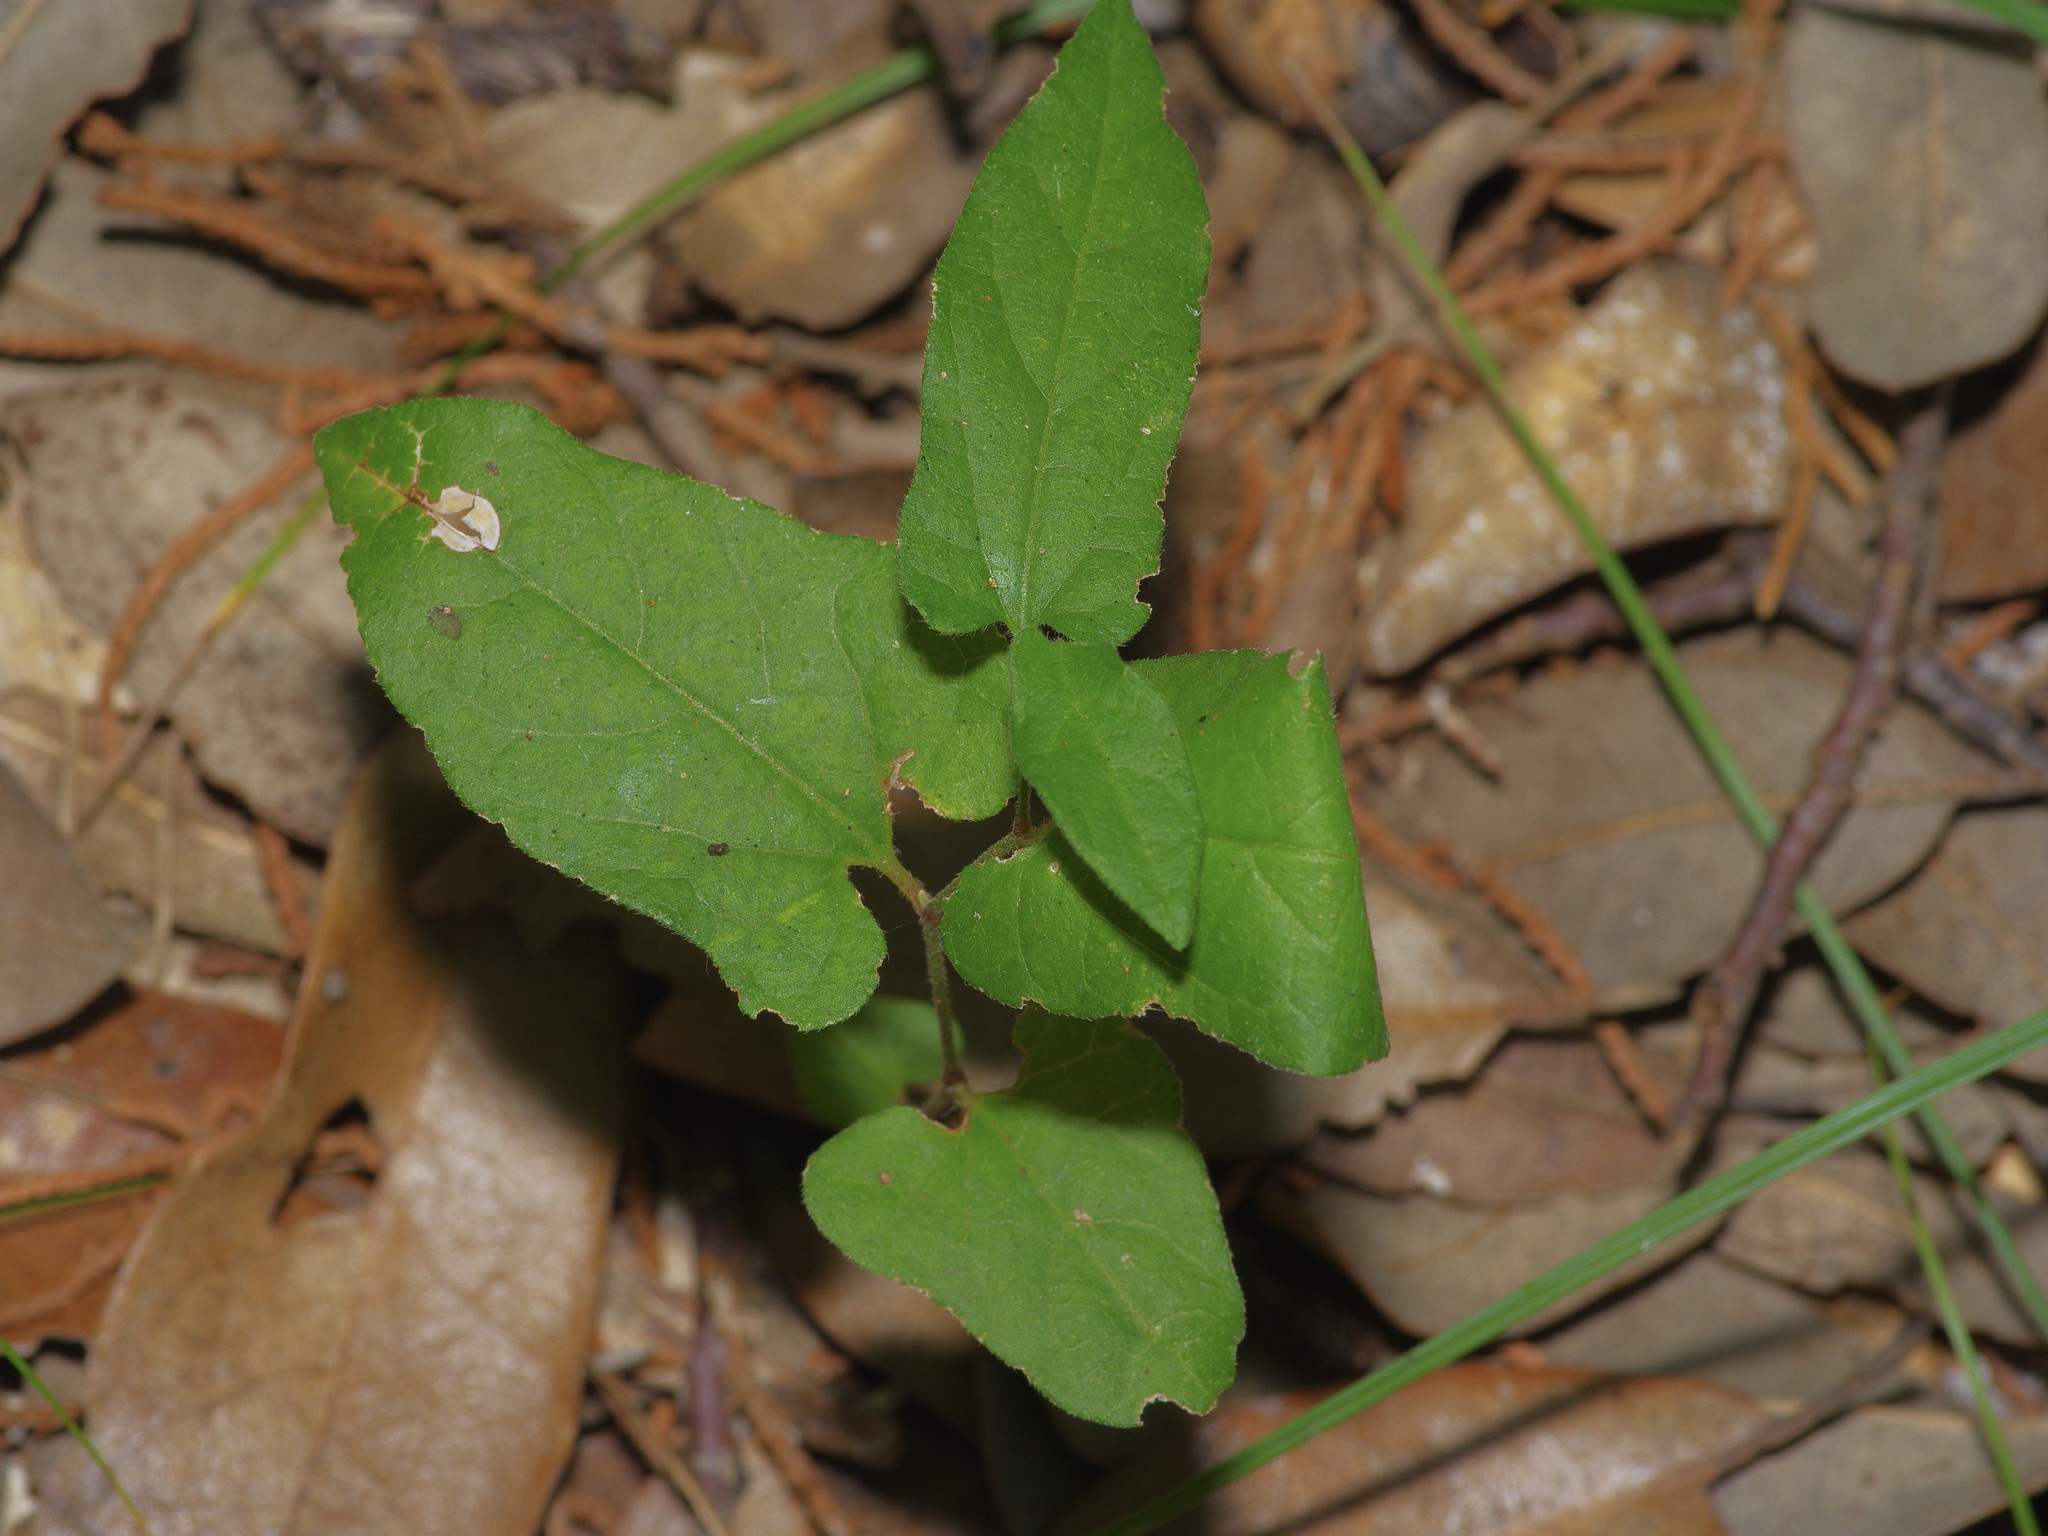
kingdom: Plantae
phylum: Tracheophyta
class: Magnoliopsida
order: Piperales
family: Aristolochiaceae
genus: Endodeca
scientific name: Endodeca serpentaria
